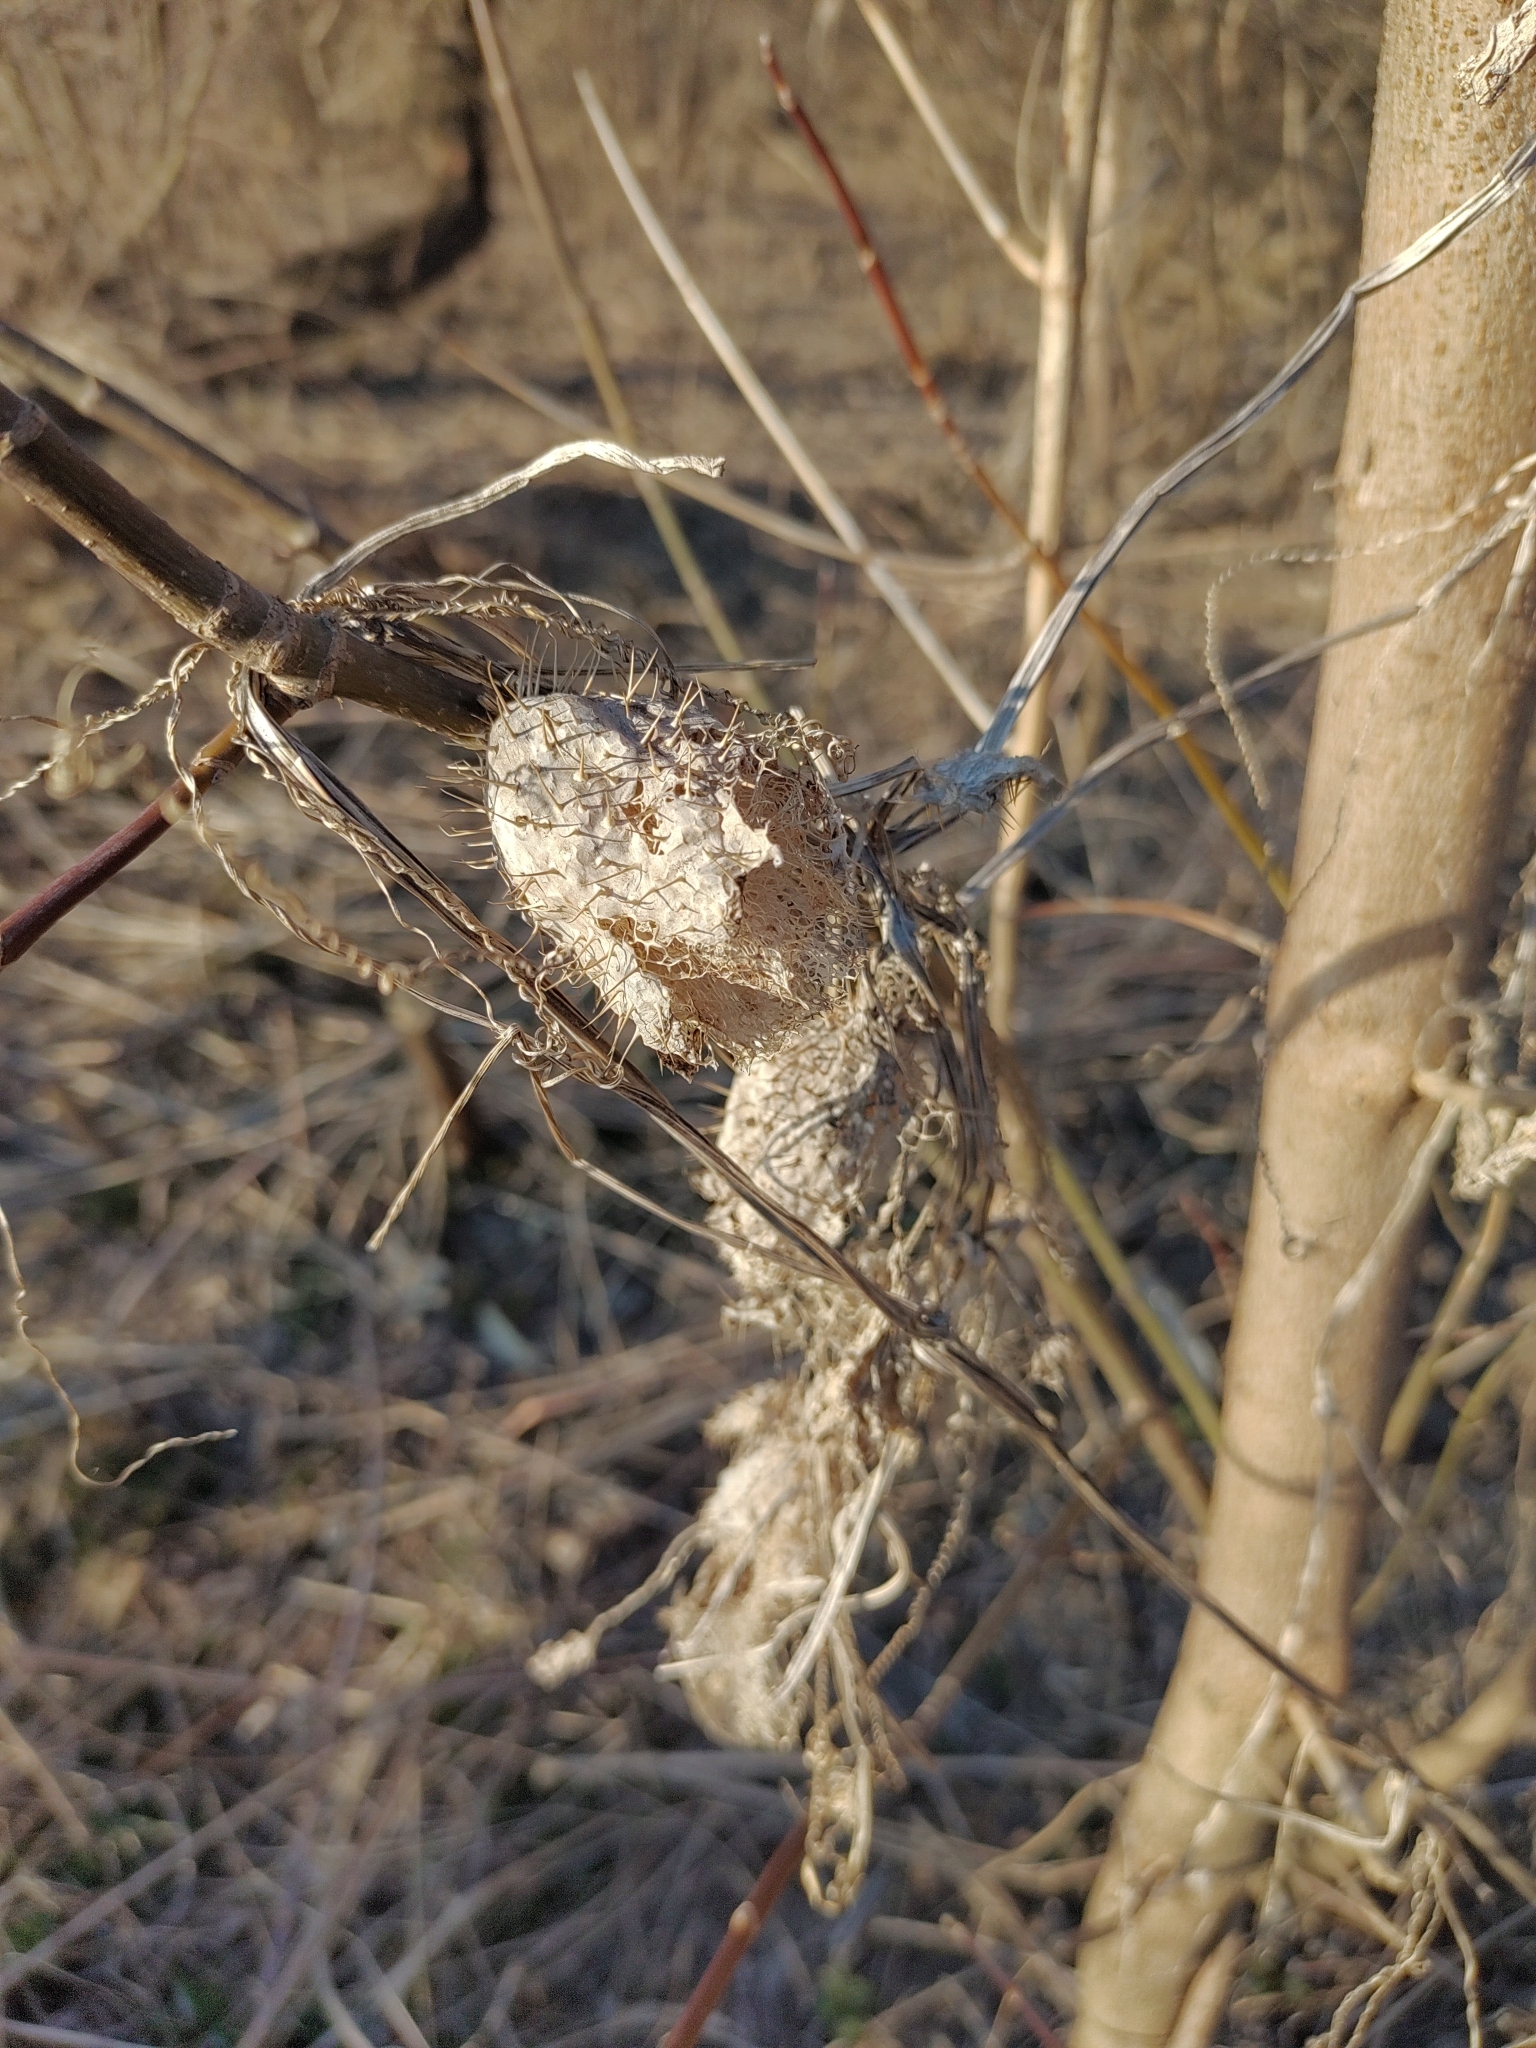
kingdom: Plantae
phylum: Tracheophyta
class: Magnoliopsida
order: Cucurbitales
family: Cucurbitaceae
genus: Echinocystis
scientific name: Echinocystis lobata
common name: Wild cucumber
